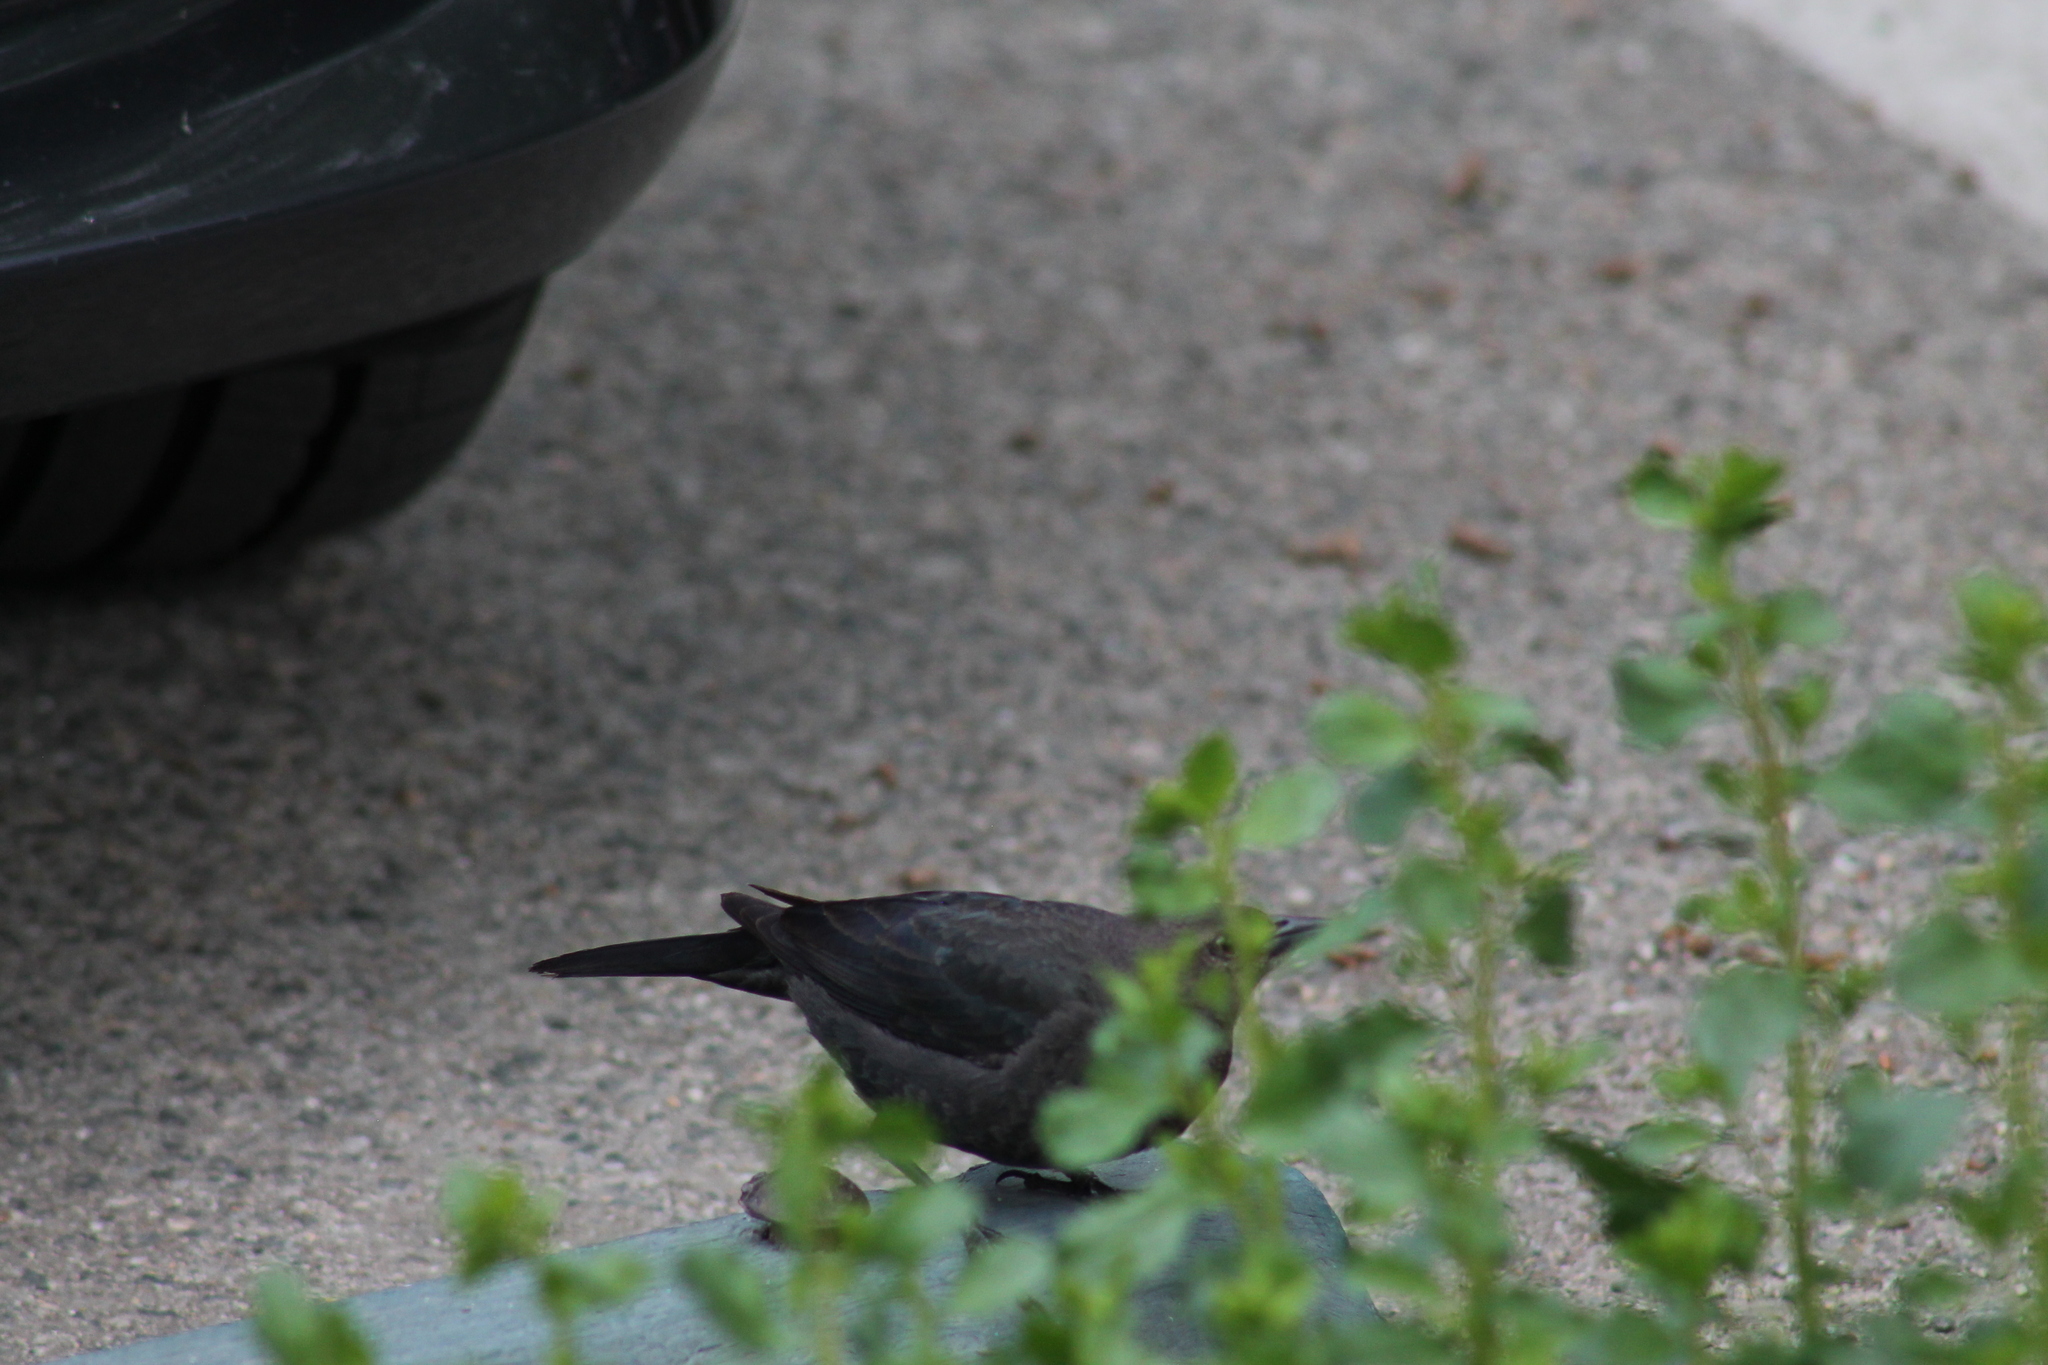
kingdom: Animalia
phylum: Chordata
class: Aves
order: Passeriformes
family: Icteridae
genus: Euphagus
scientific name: Euphagus cyanocephalus
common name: Brewer's blackbird
